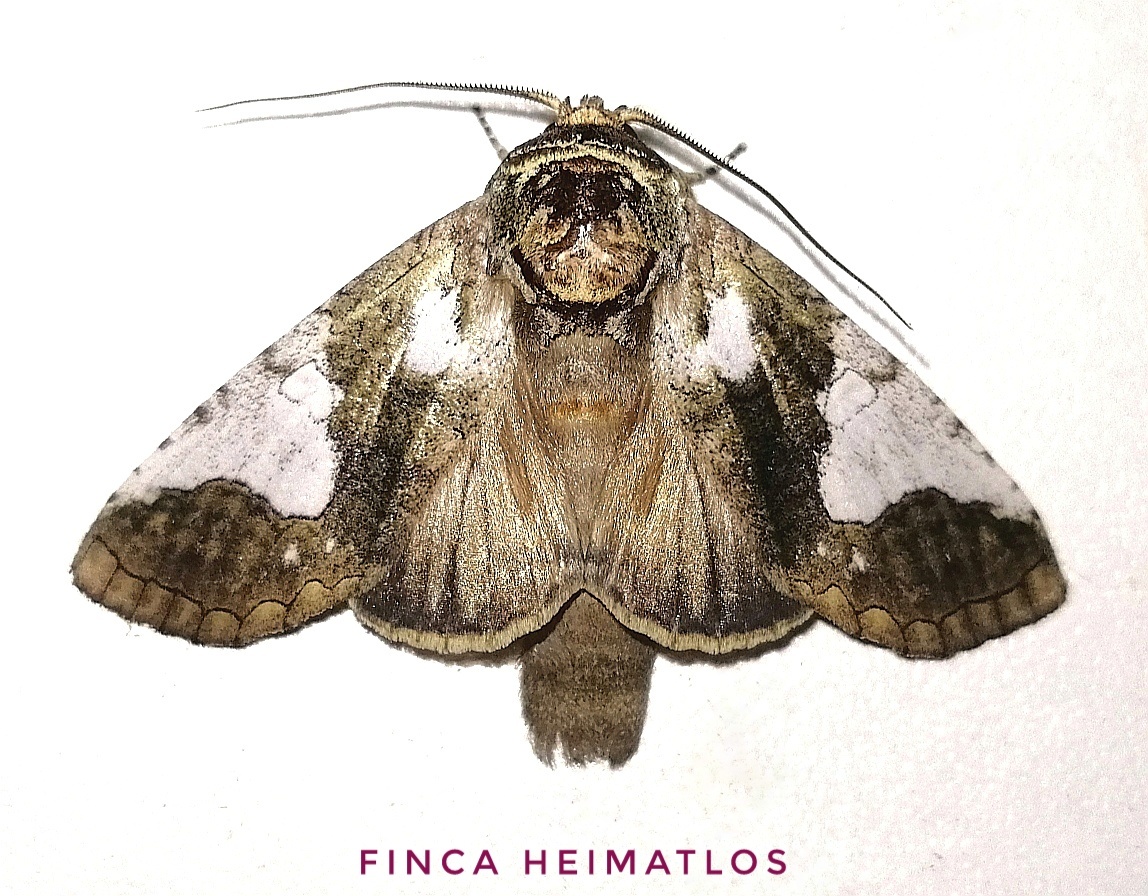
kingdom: Animalia
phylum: Arthropoda
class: Insecta
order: Lepidoptera
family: Notodontidae
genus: Rifargia
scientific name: Rifargia apella
